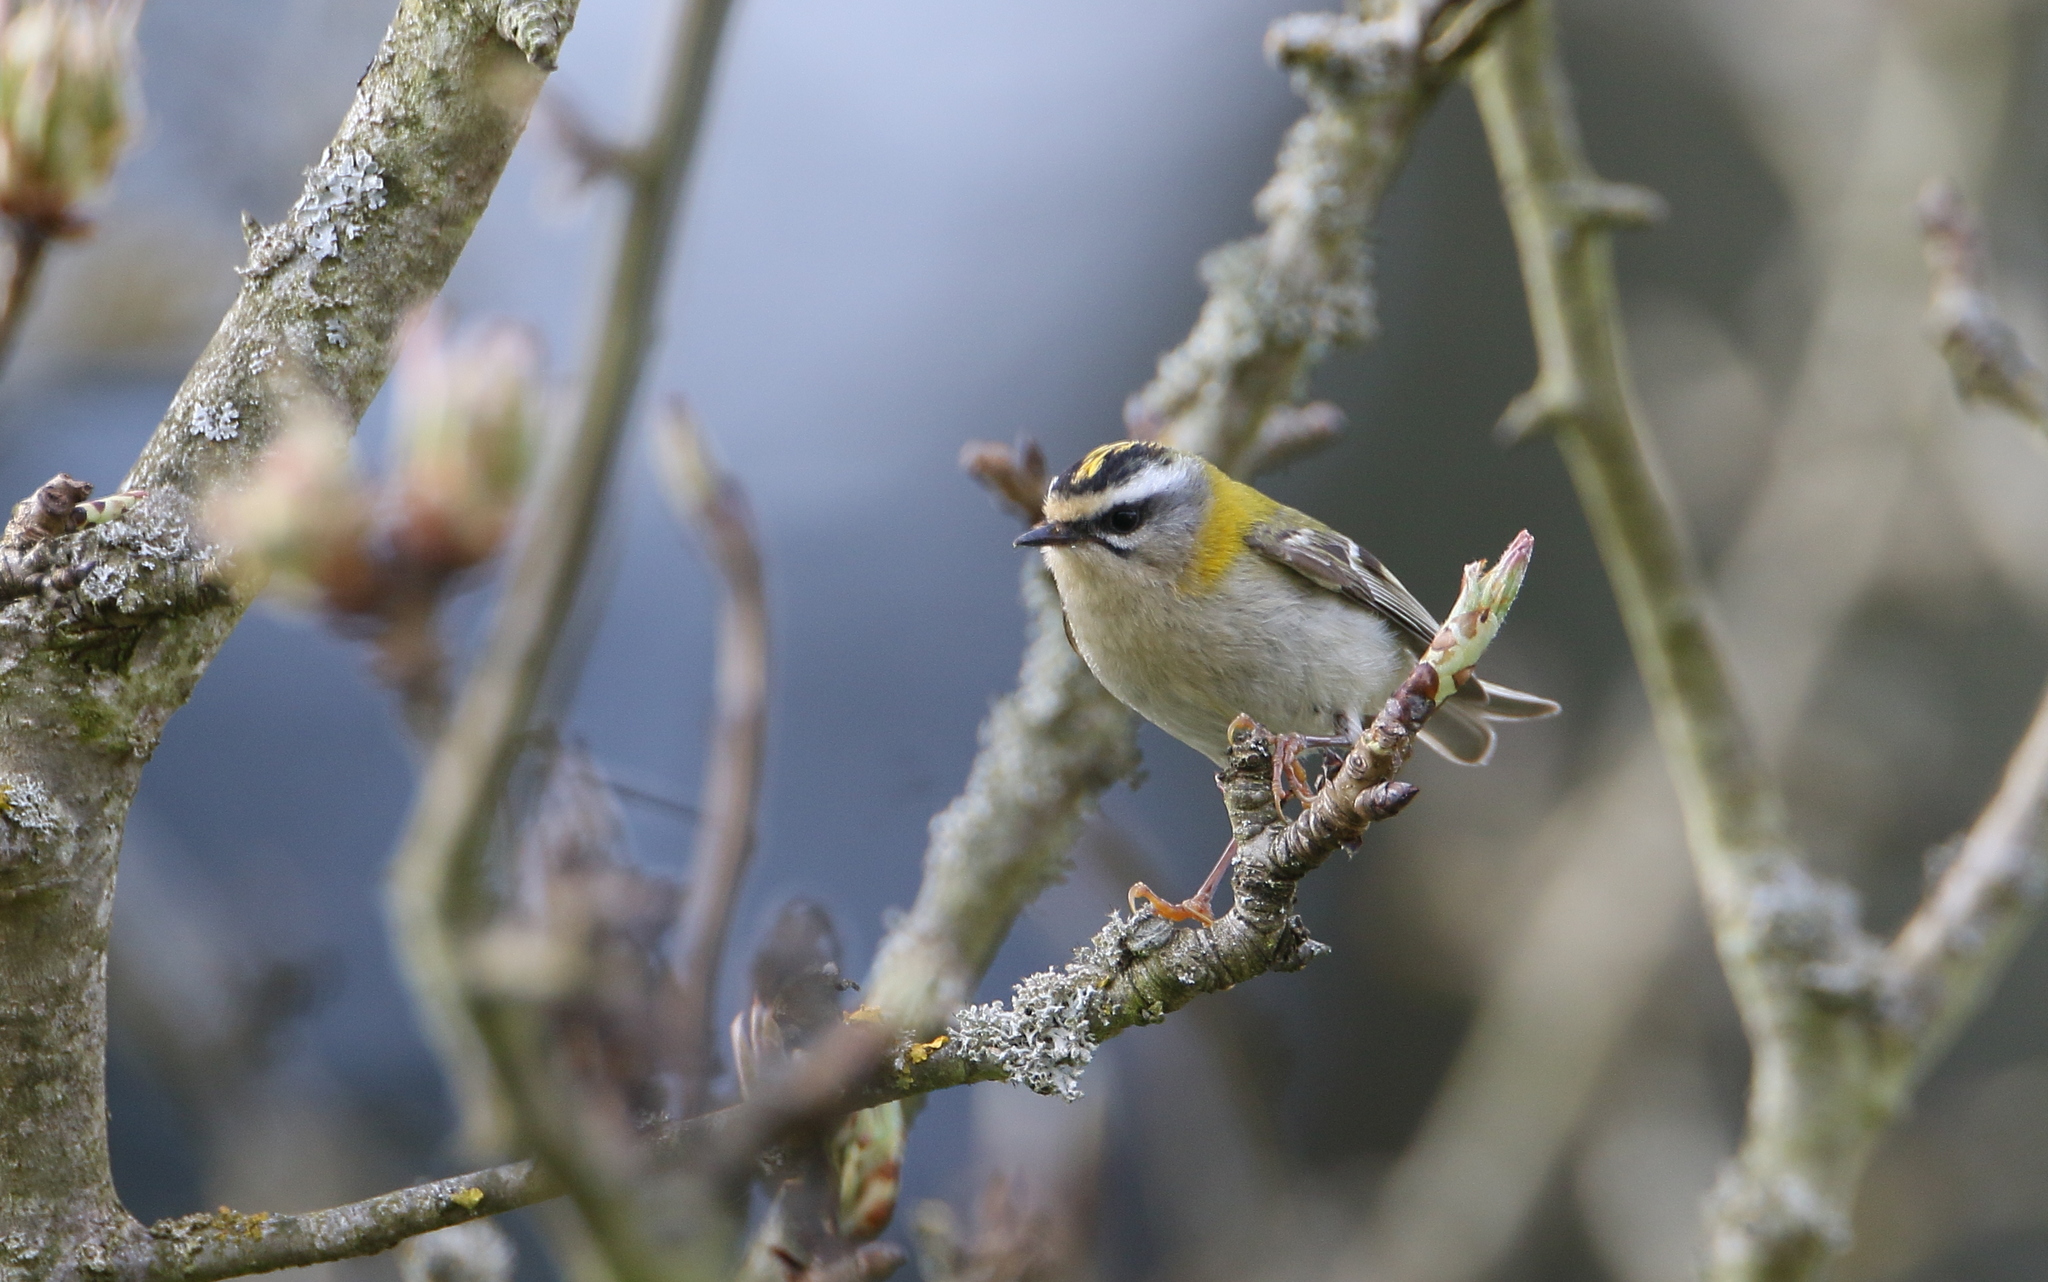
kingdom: Animalia
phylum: Chordata
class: Aves
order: Passeriformes
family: Regulidae
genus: Regulus
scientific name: Regulus ignicapilla
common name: Firecrest
